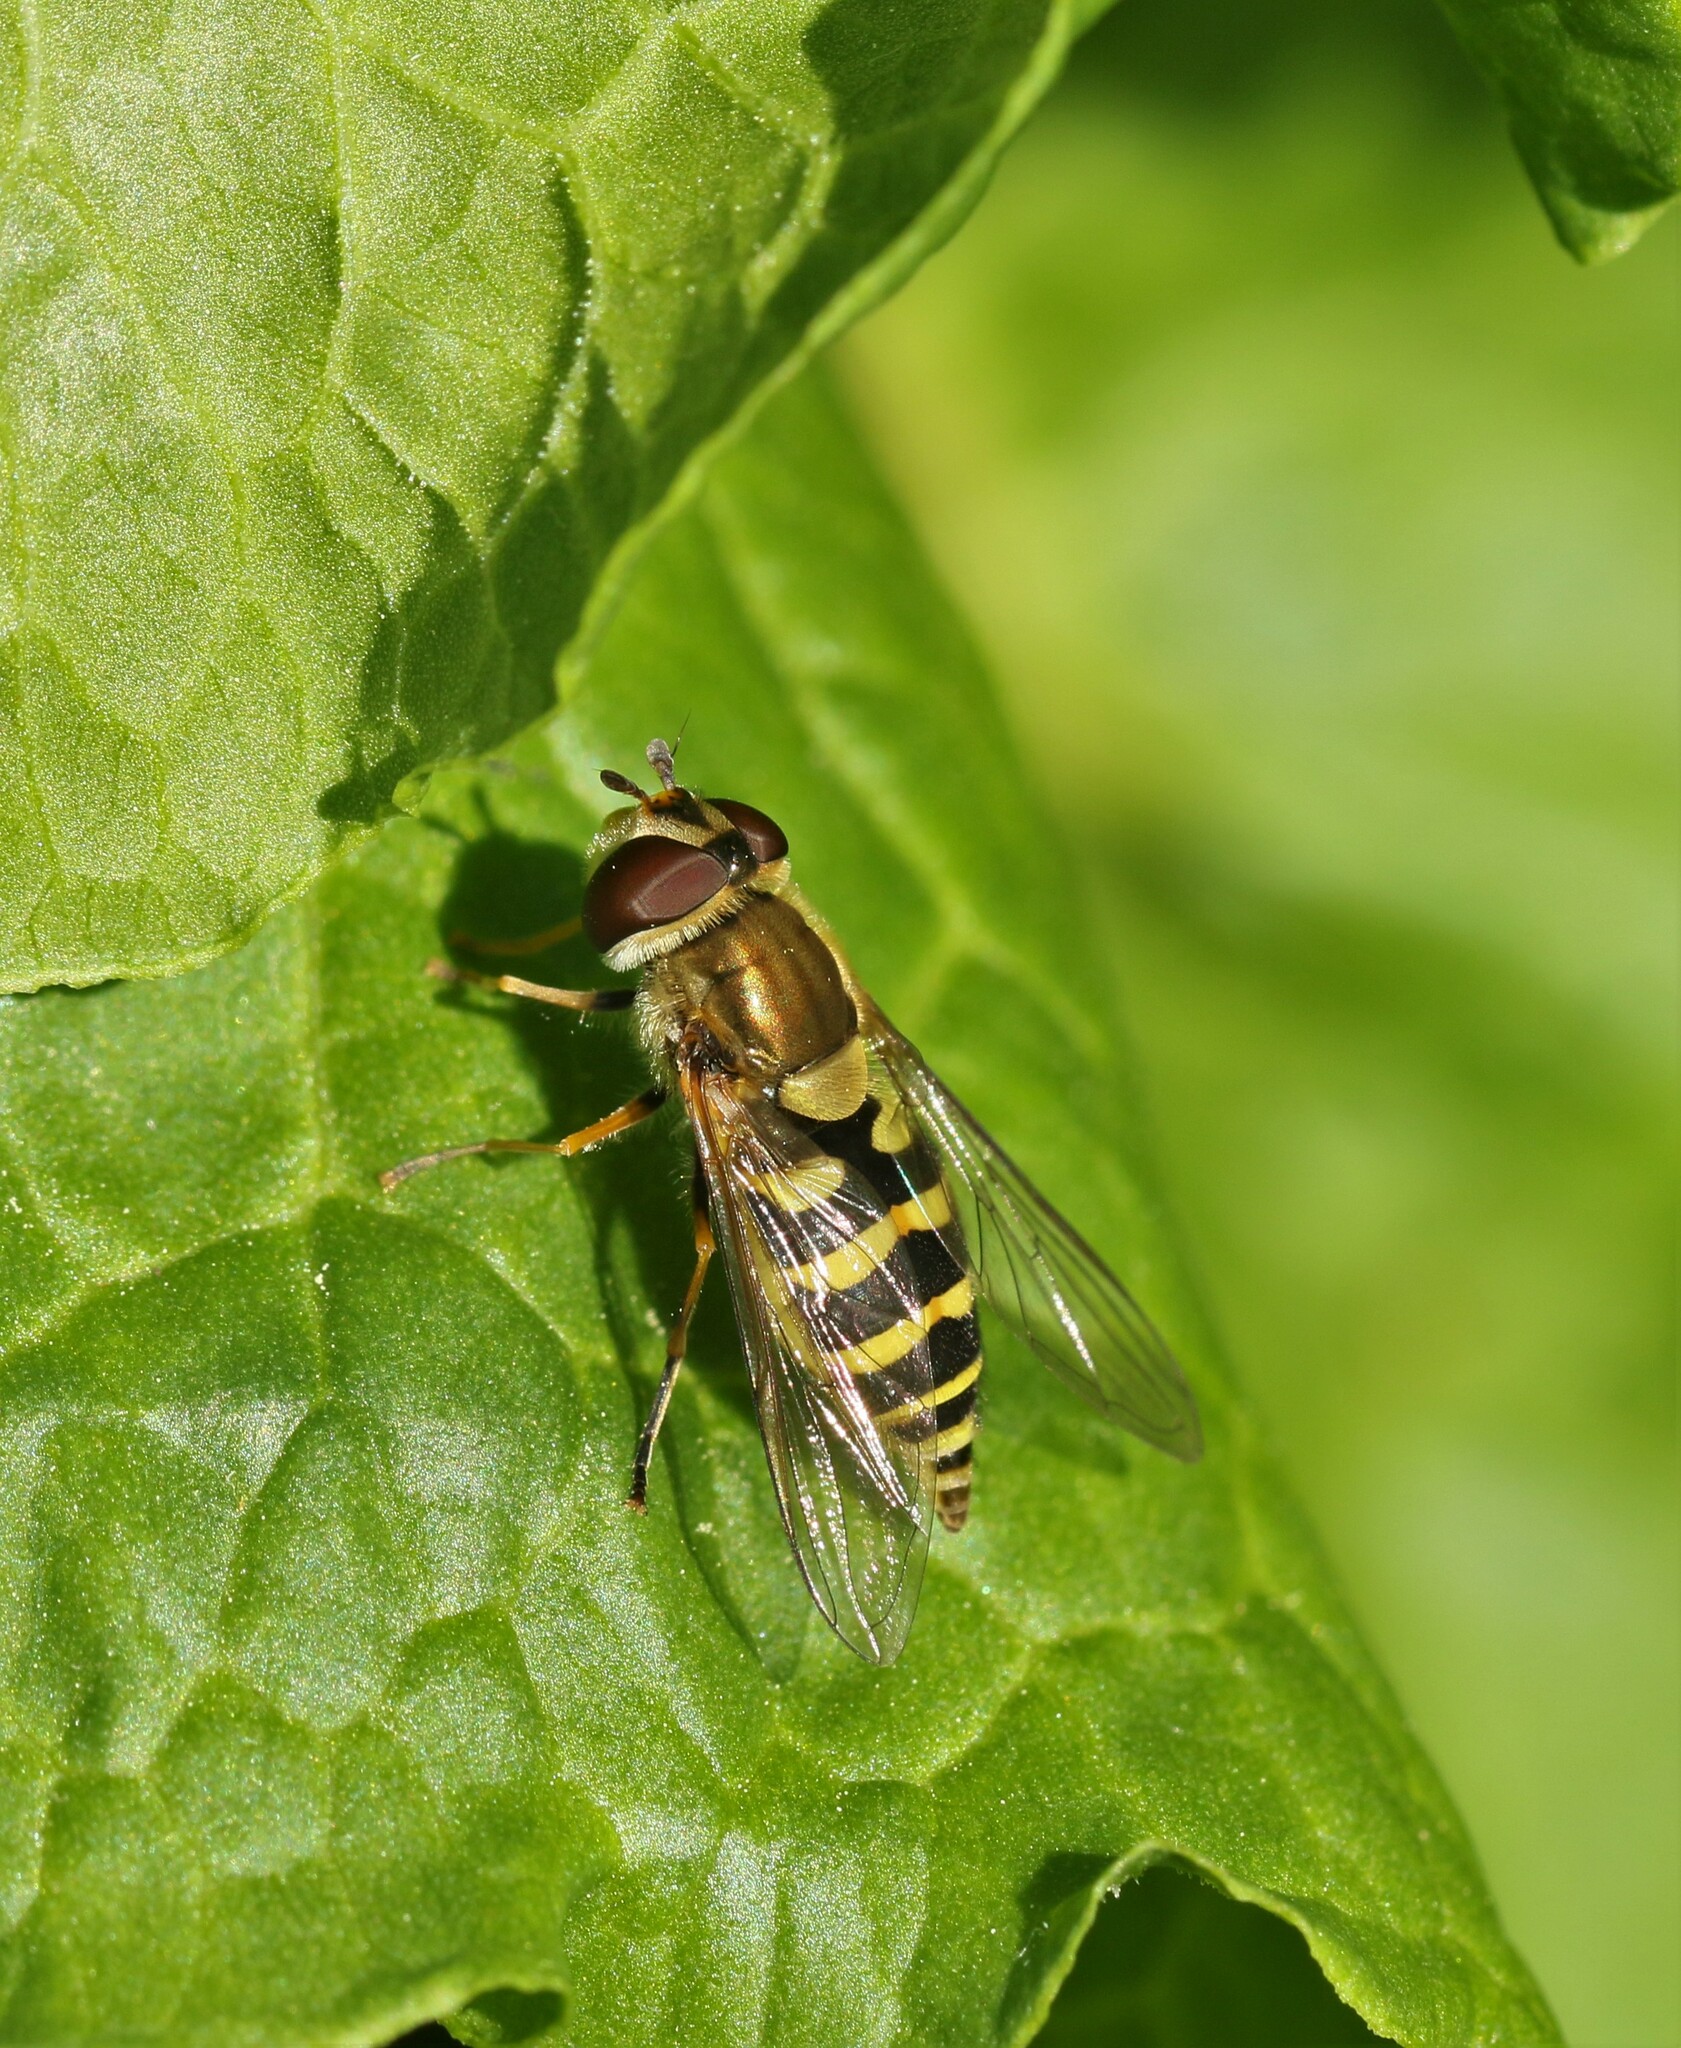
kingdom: Animalia
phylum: Arthropoda
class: Insecta
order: Diptera
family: Syrphidae
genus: Syrphus
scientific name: Syrphus
